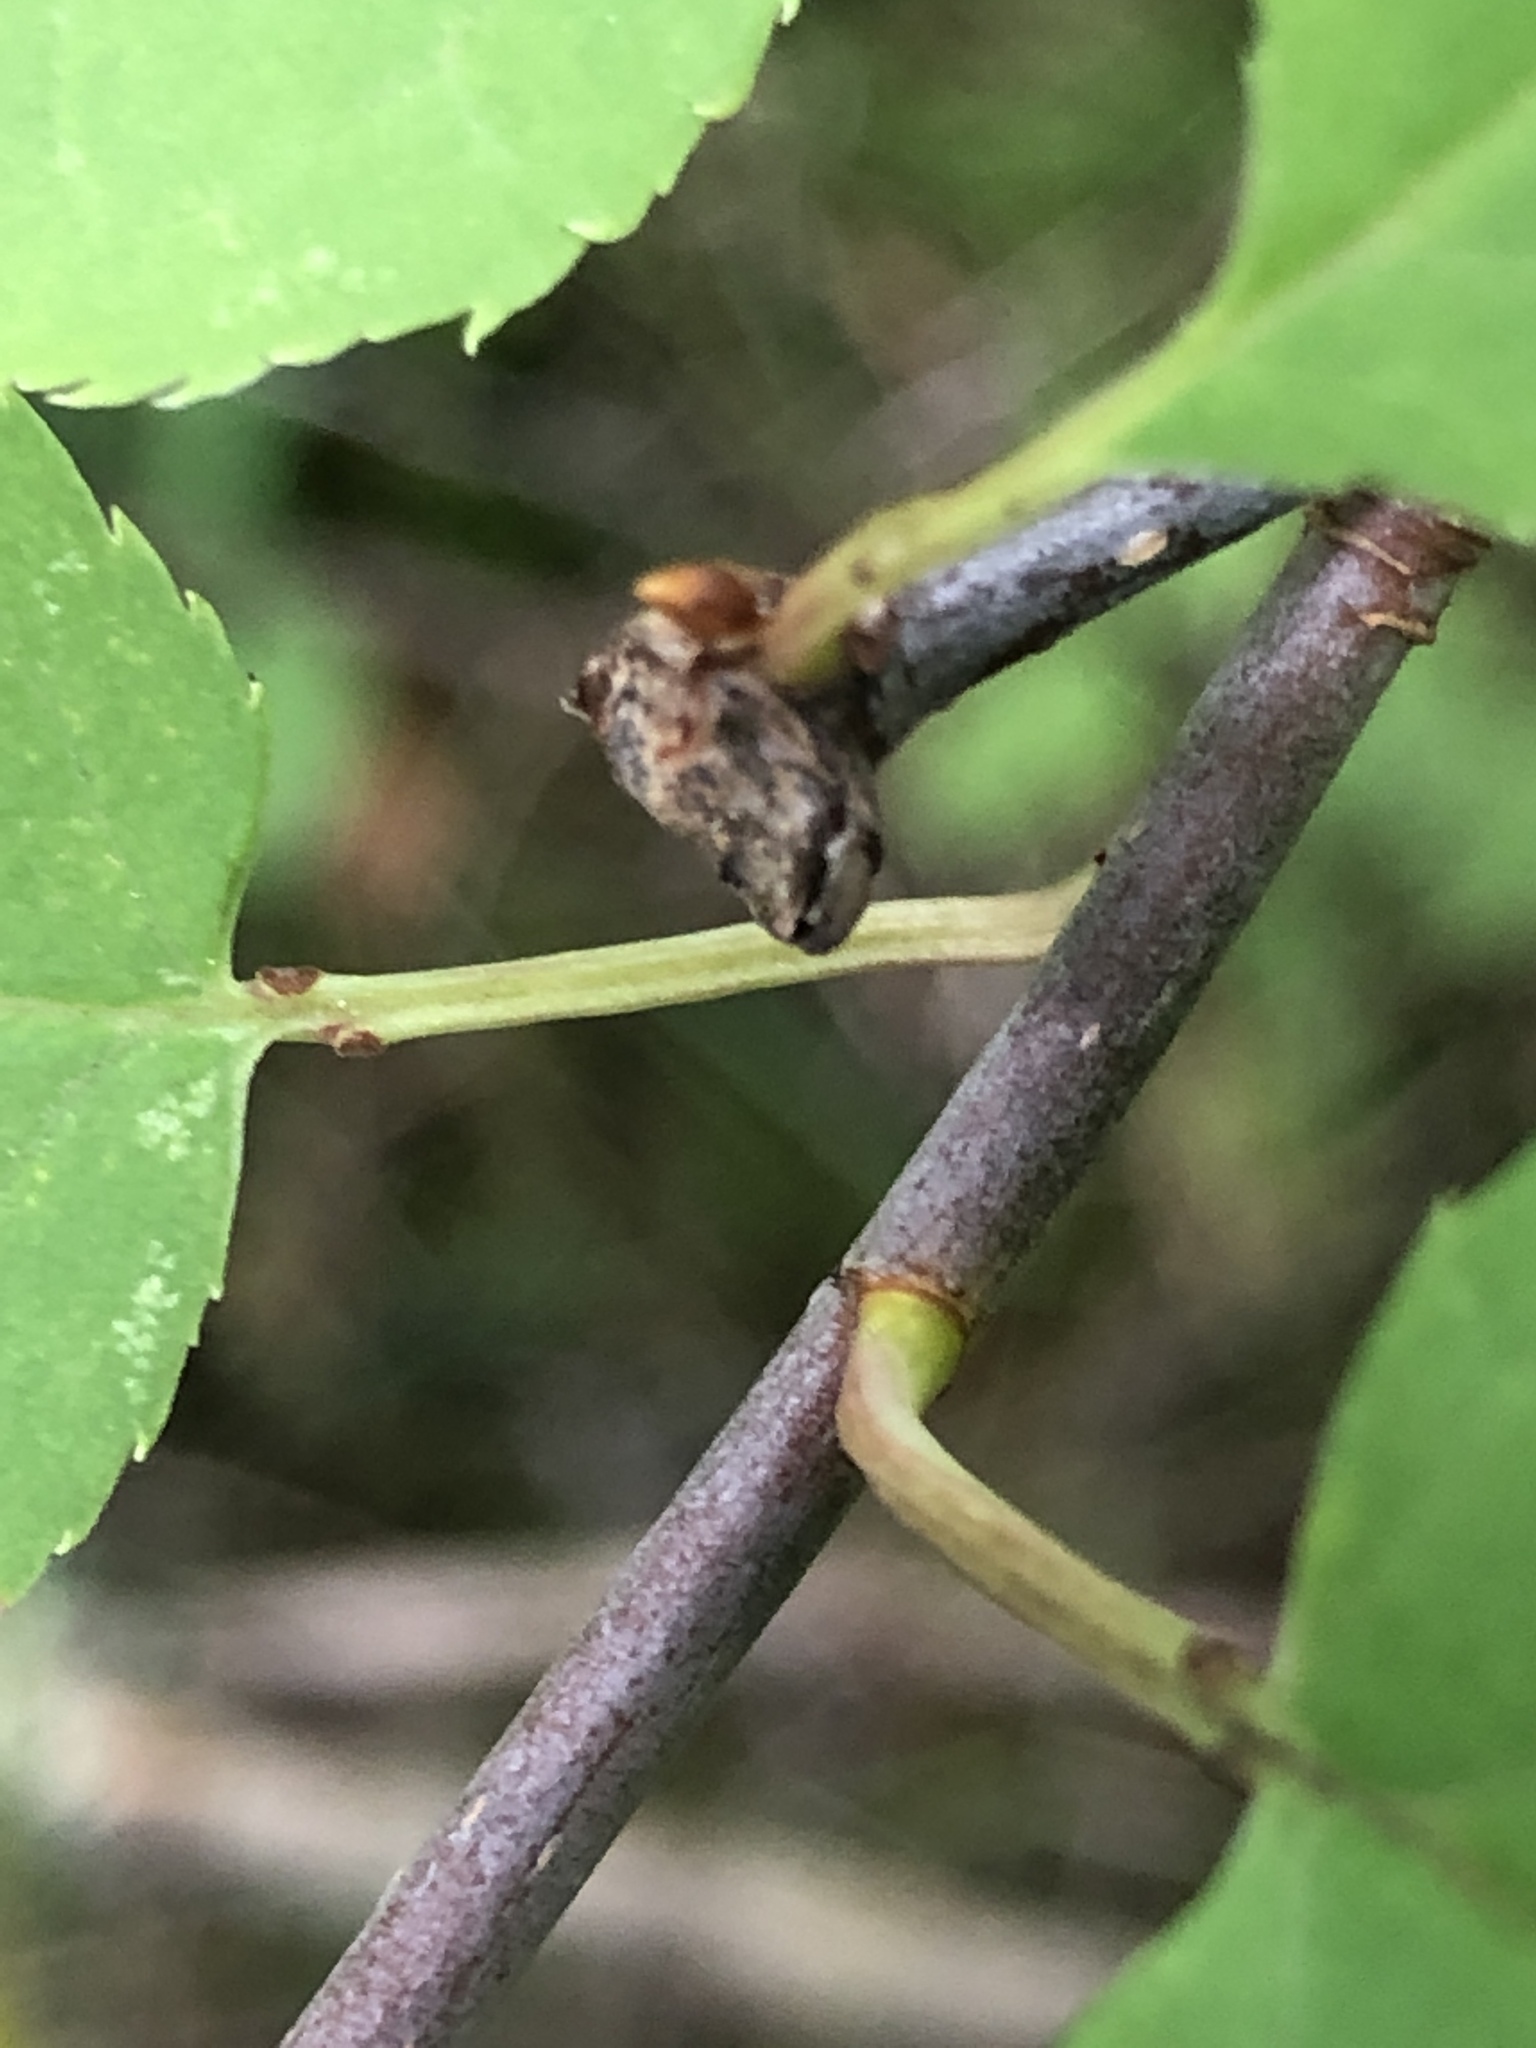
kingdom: Plantae
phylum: Tracheophyta
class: Magnoliopsida
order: Rosales
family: Rosaceae
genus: Prunus
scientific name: Prunus virginiana
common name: Chokecherry
